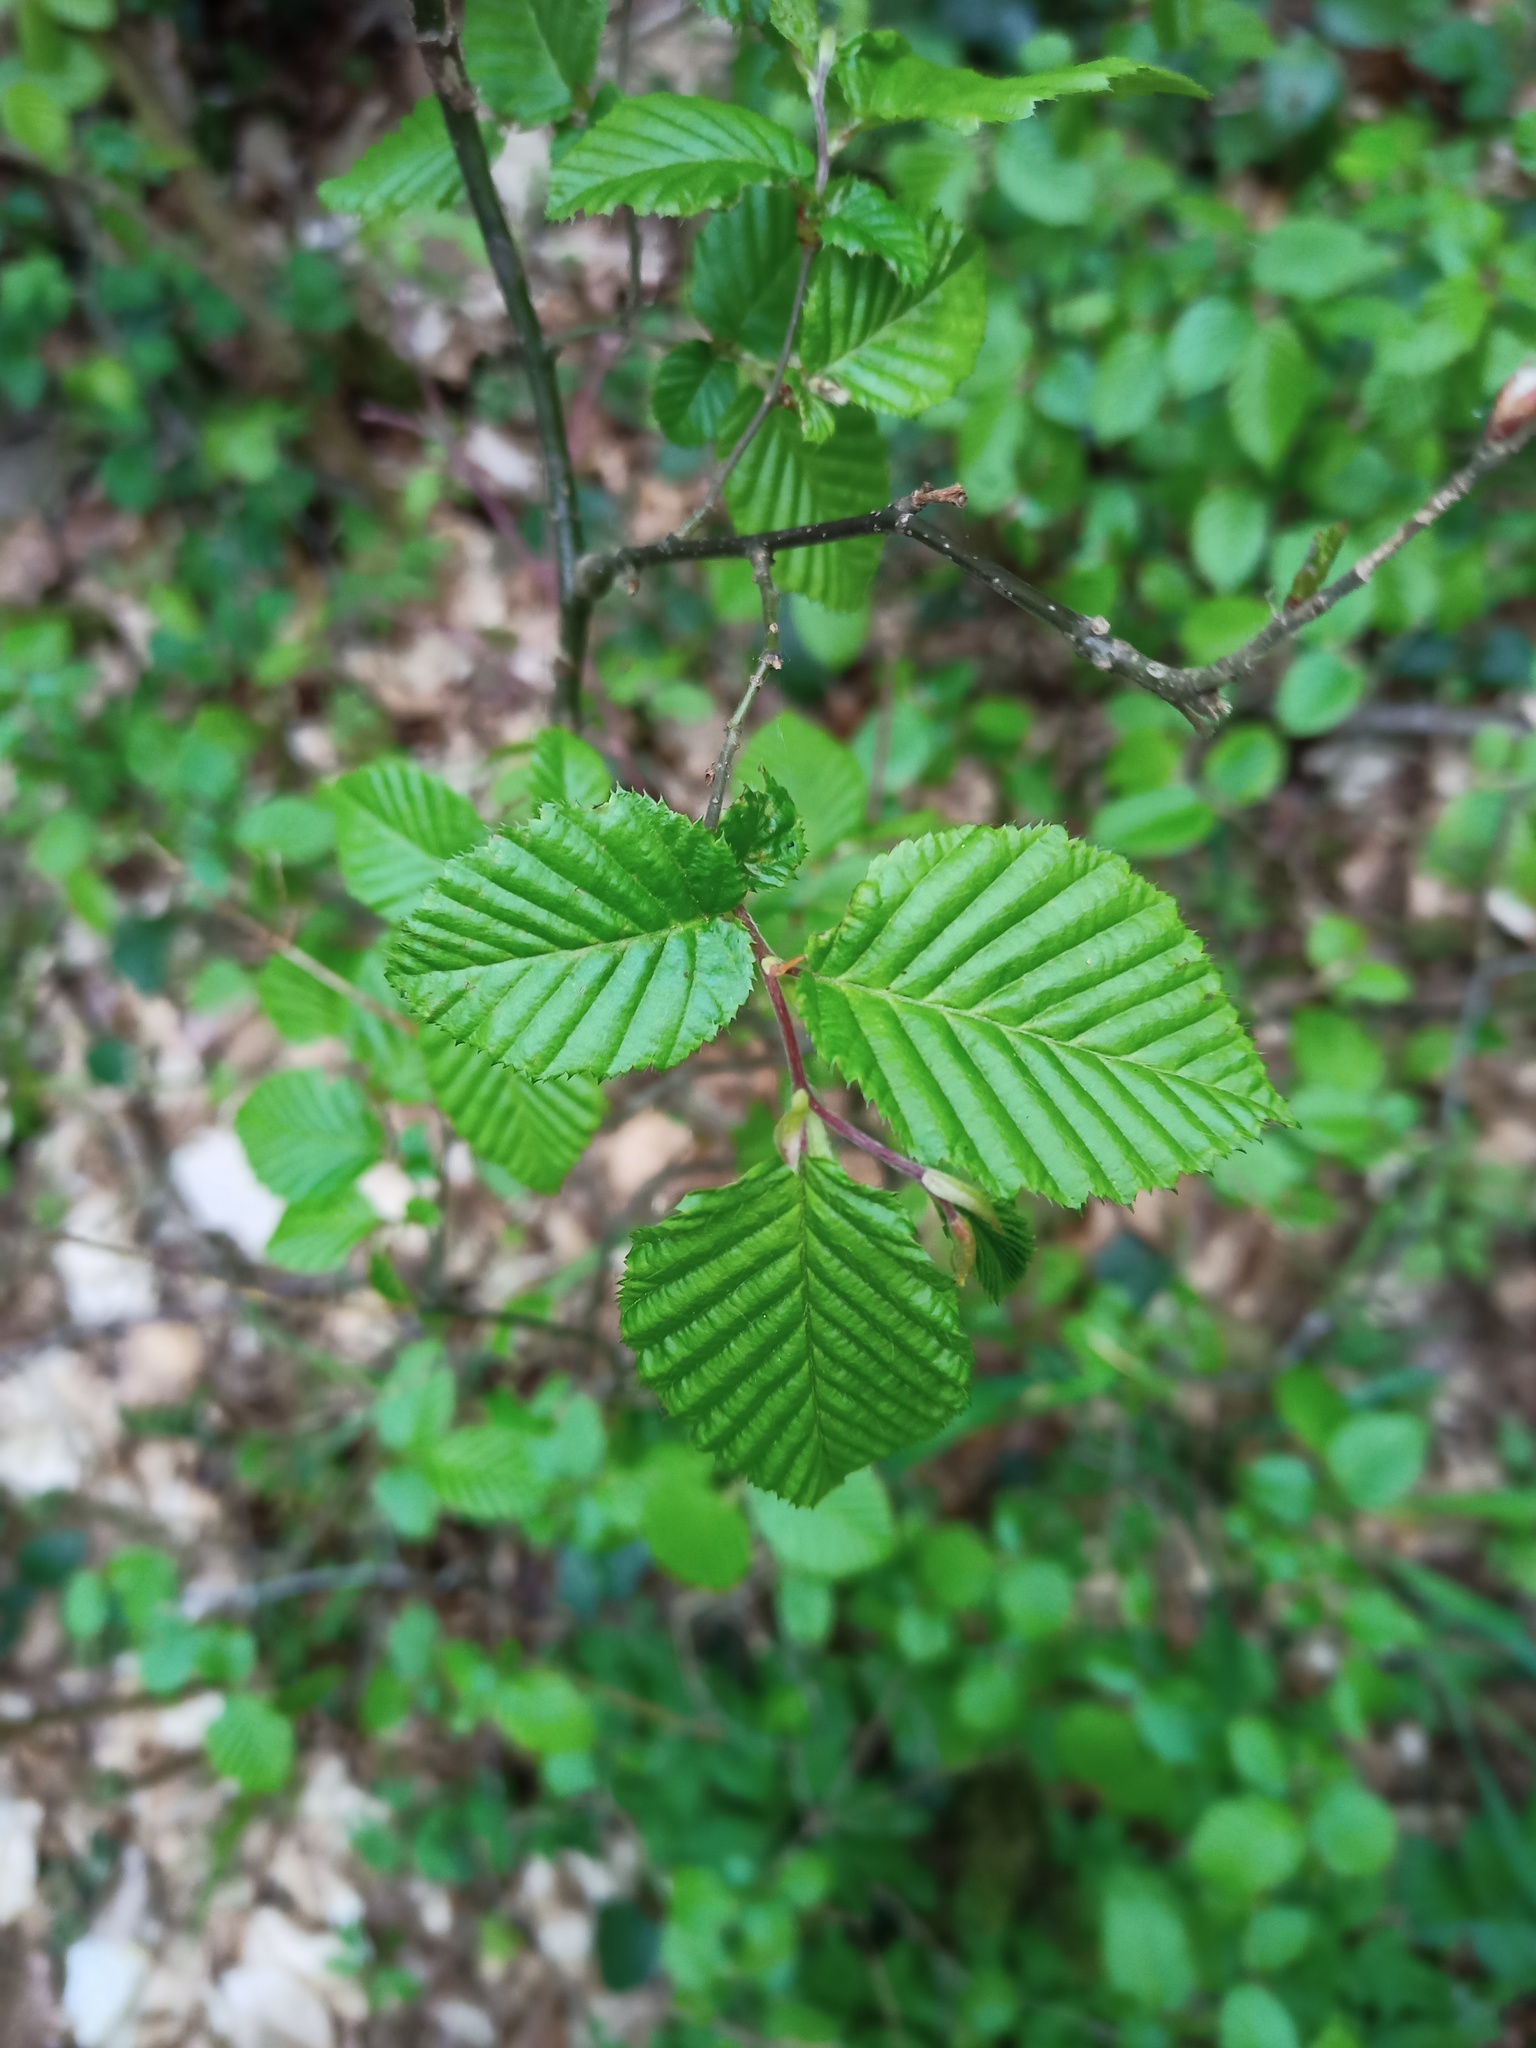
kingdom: Plantae
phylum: Tracheophyta
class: Magnoliopsida
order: Fagales
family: Betulaceae
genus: Carpinus
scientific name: Carpinus betulus
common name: Hornbeam
